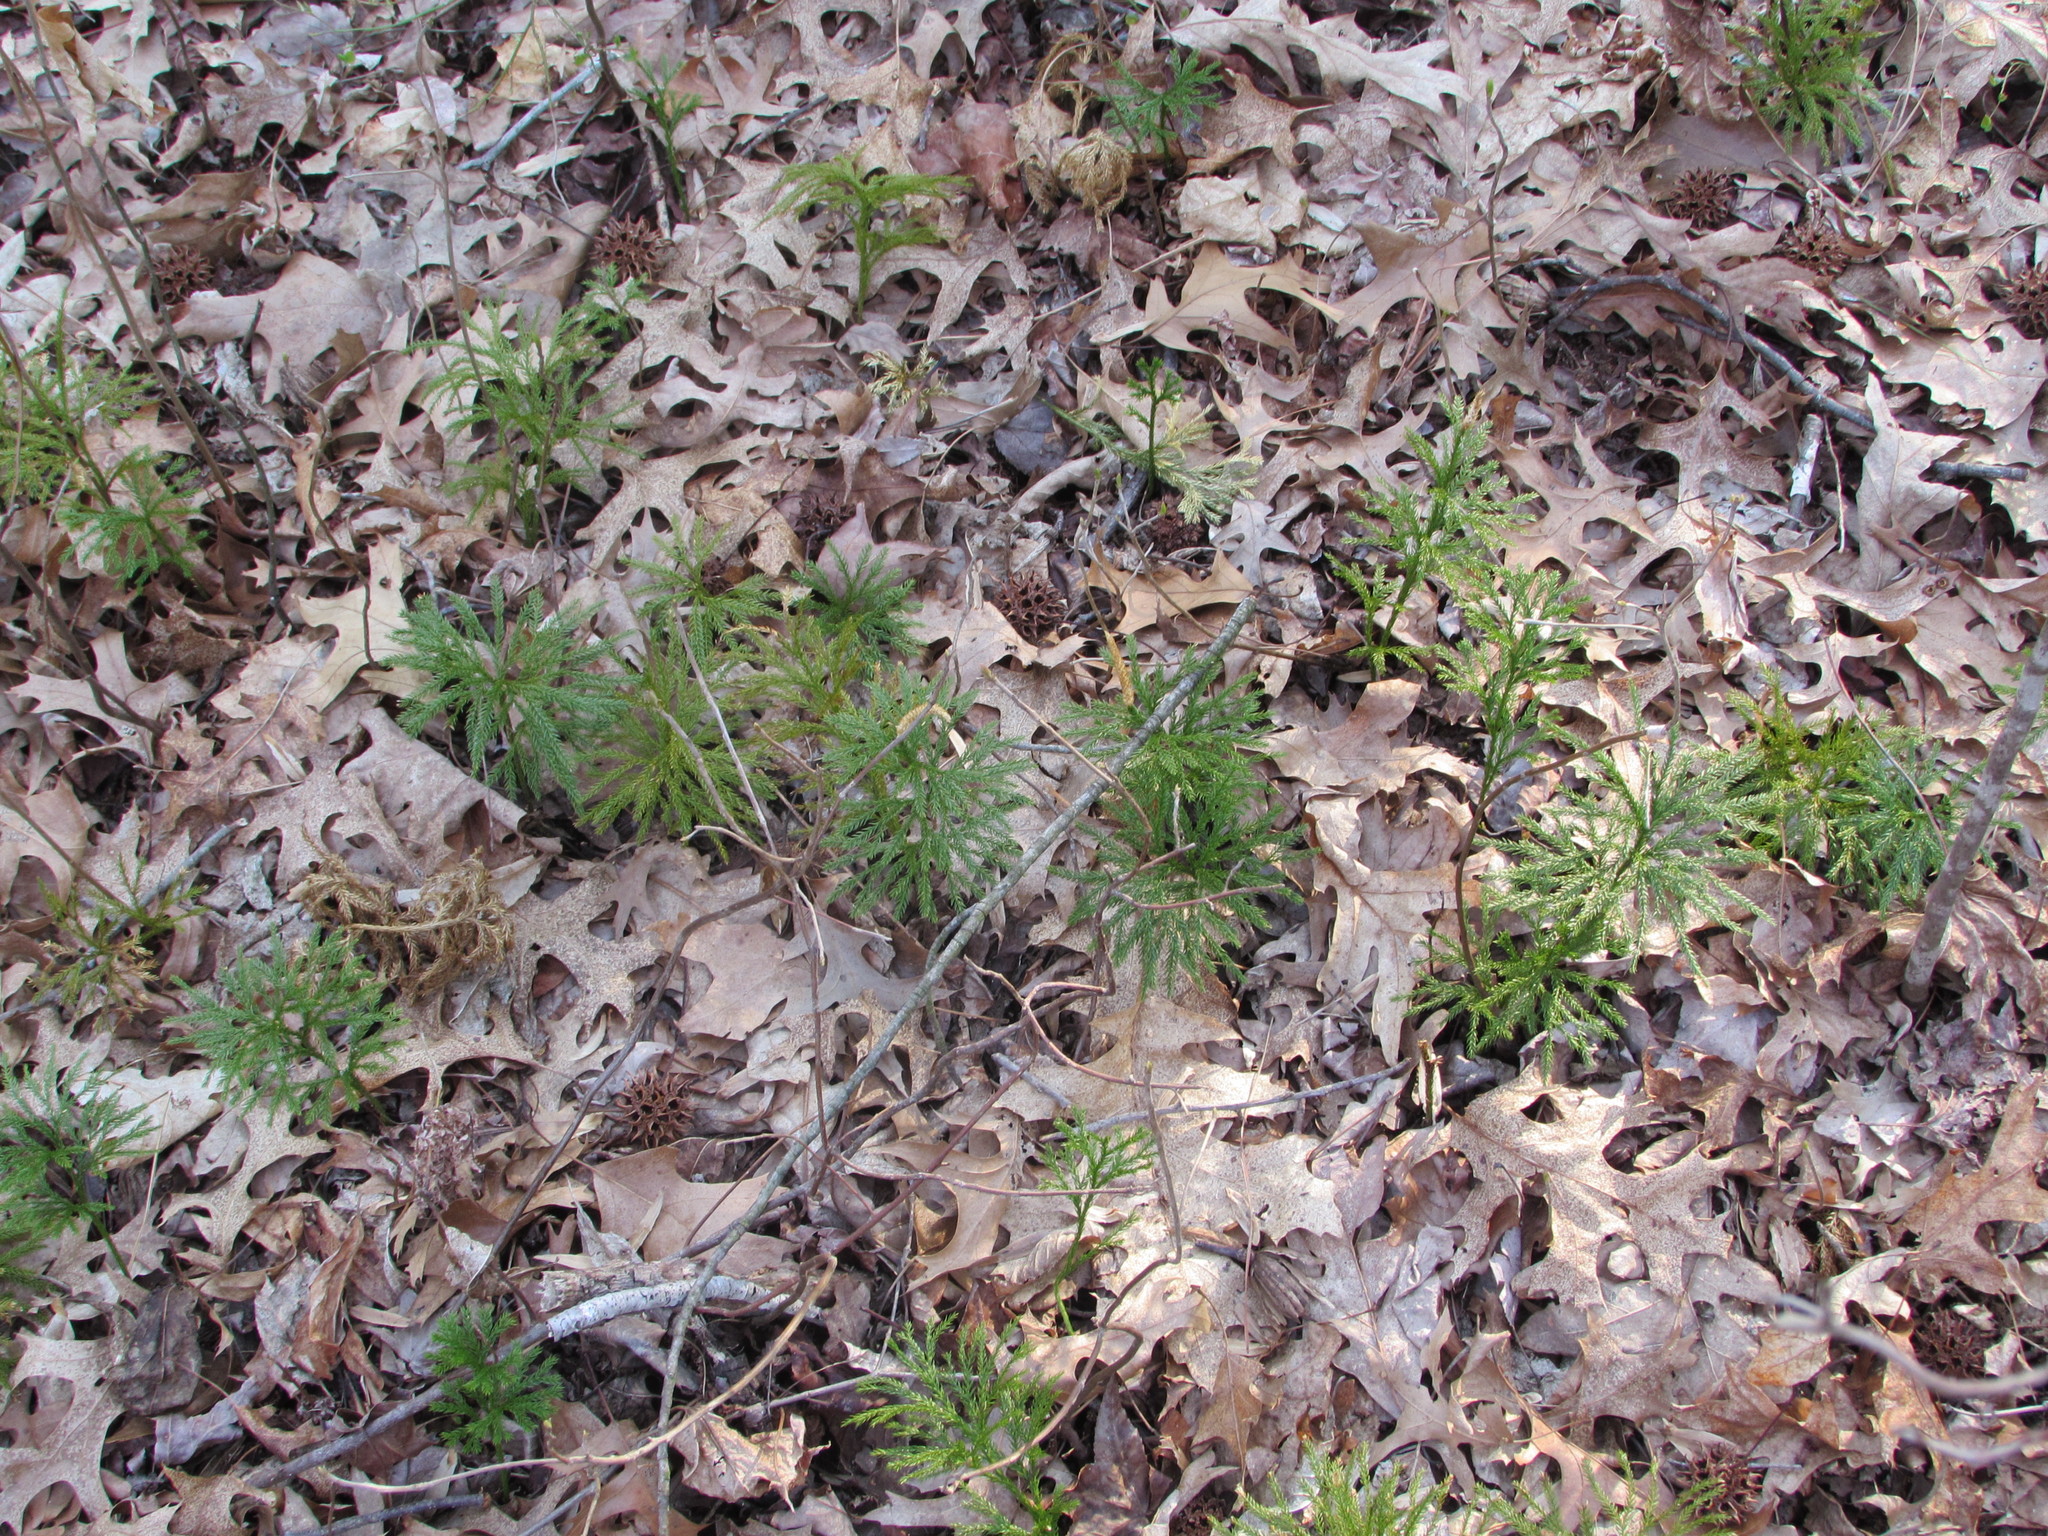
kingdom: Plantae
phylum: Tracheophyta
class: Lycopodiopsida
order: Lycopodiales
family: Lycopodiaceae
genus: Dendrolycopodium
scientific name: Dendrolycopodium obscurum
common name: Common ground-pine
